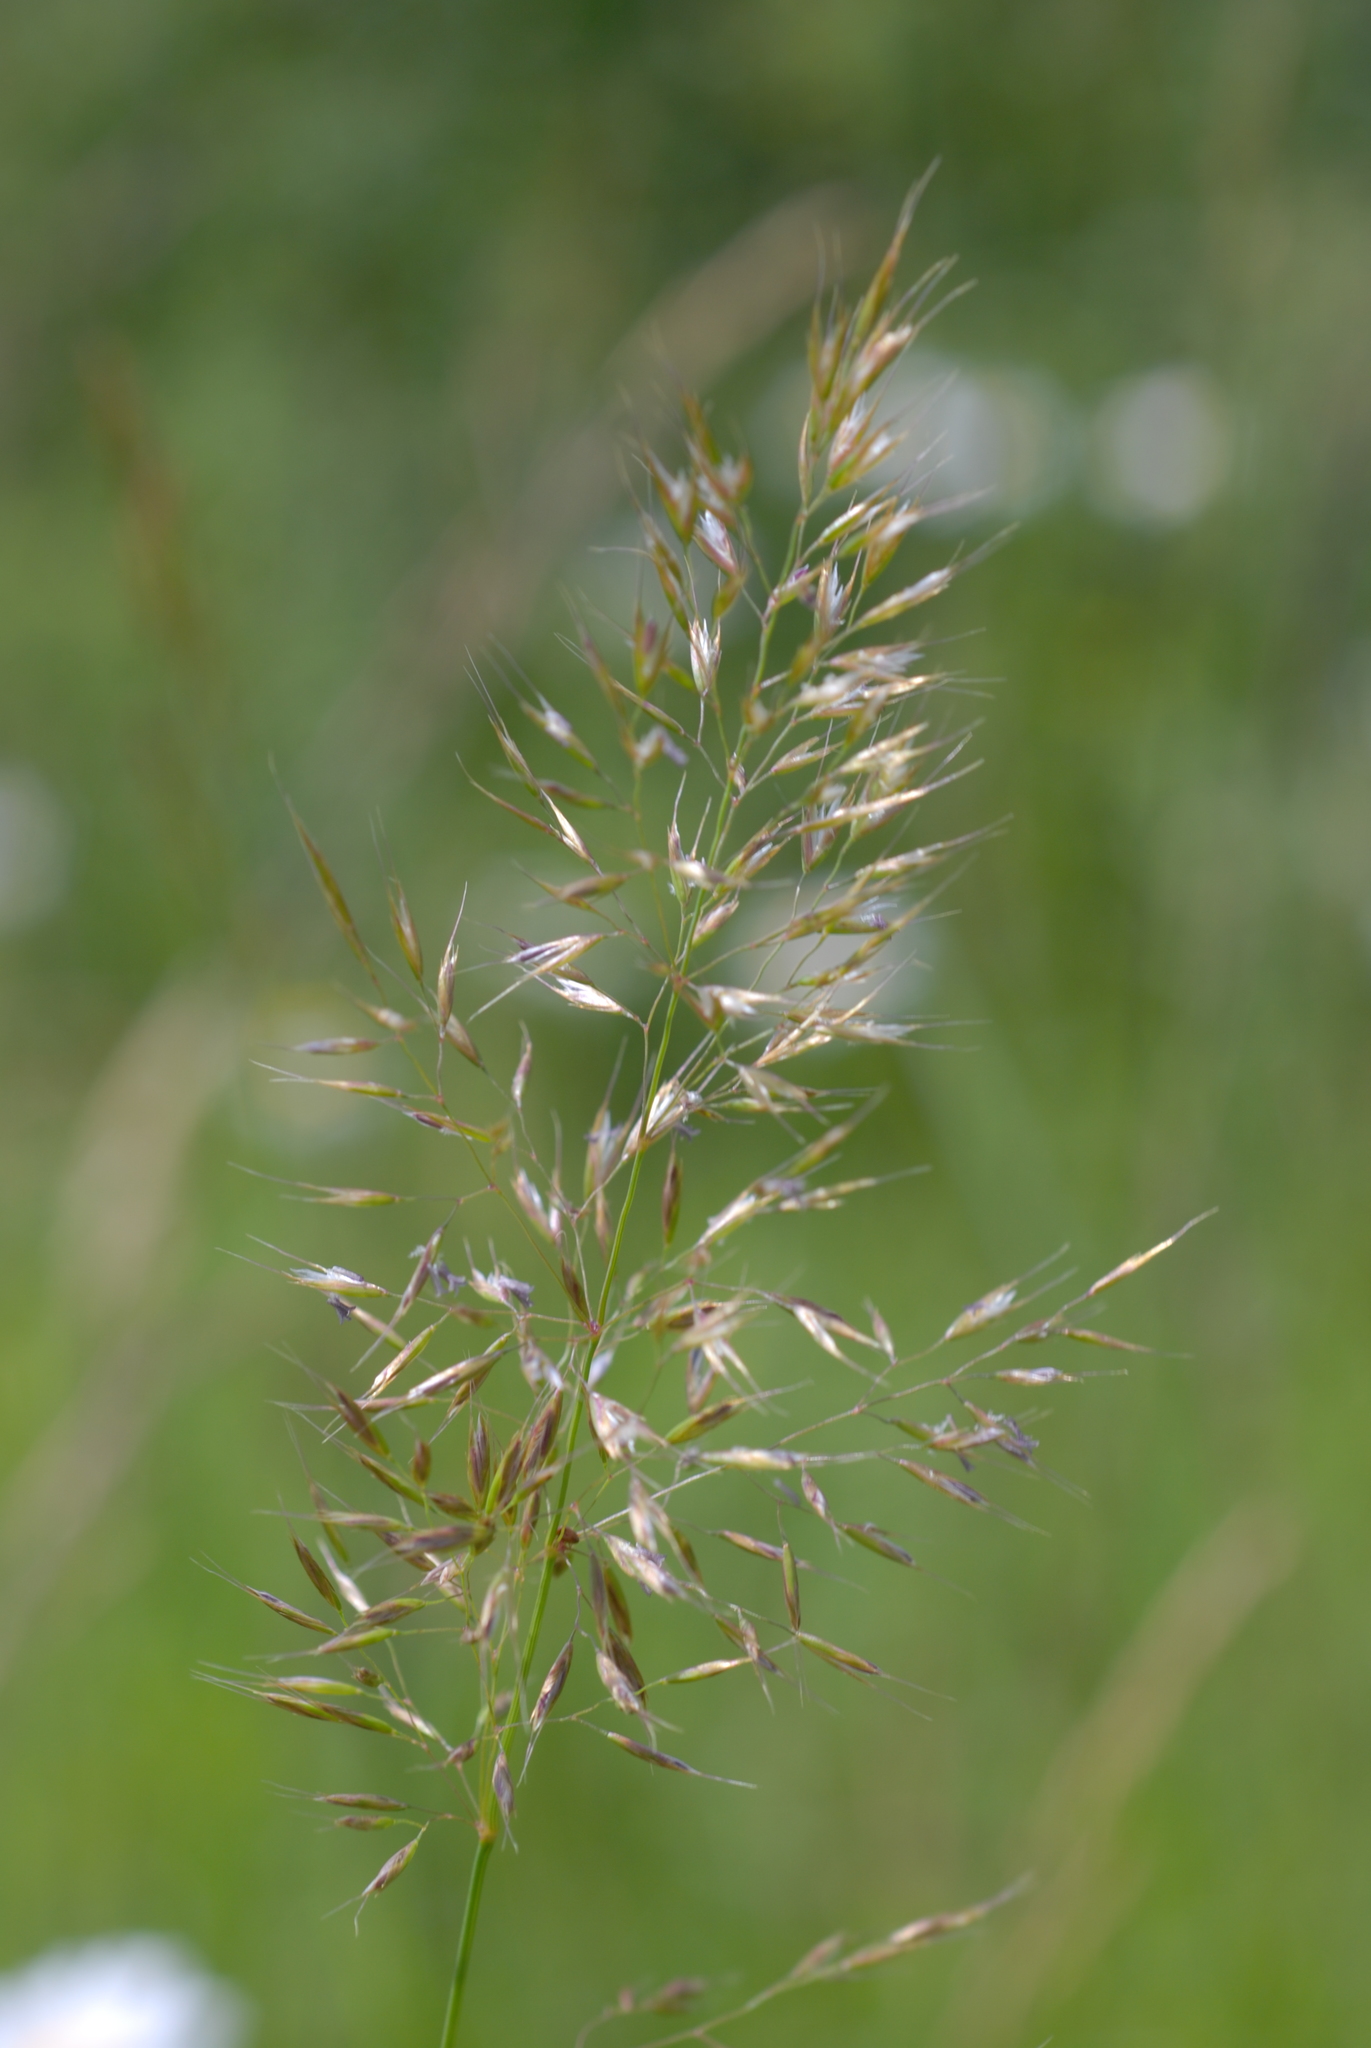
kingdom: Plantae
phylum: Tracheophyta
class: Liliopsida
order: Poales
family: Poaceae
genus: Trisetum
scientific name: Trisetum flavescens
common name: Yellow oat-grass
